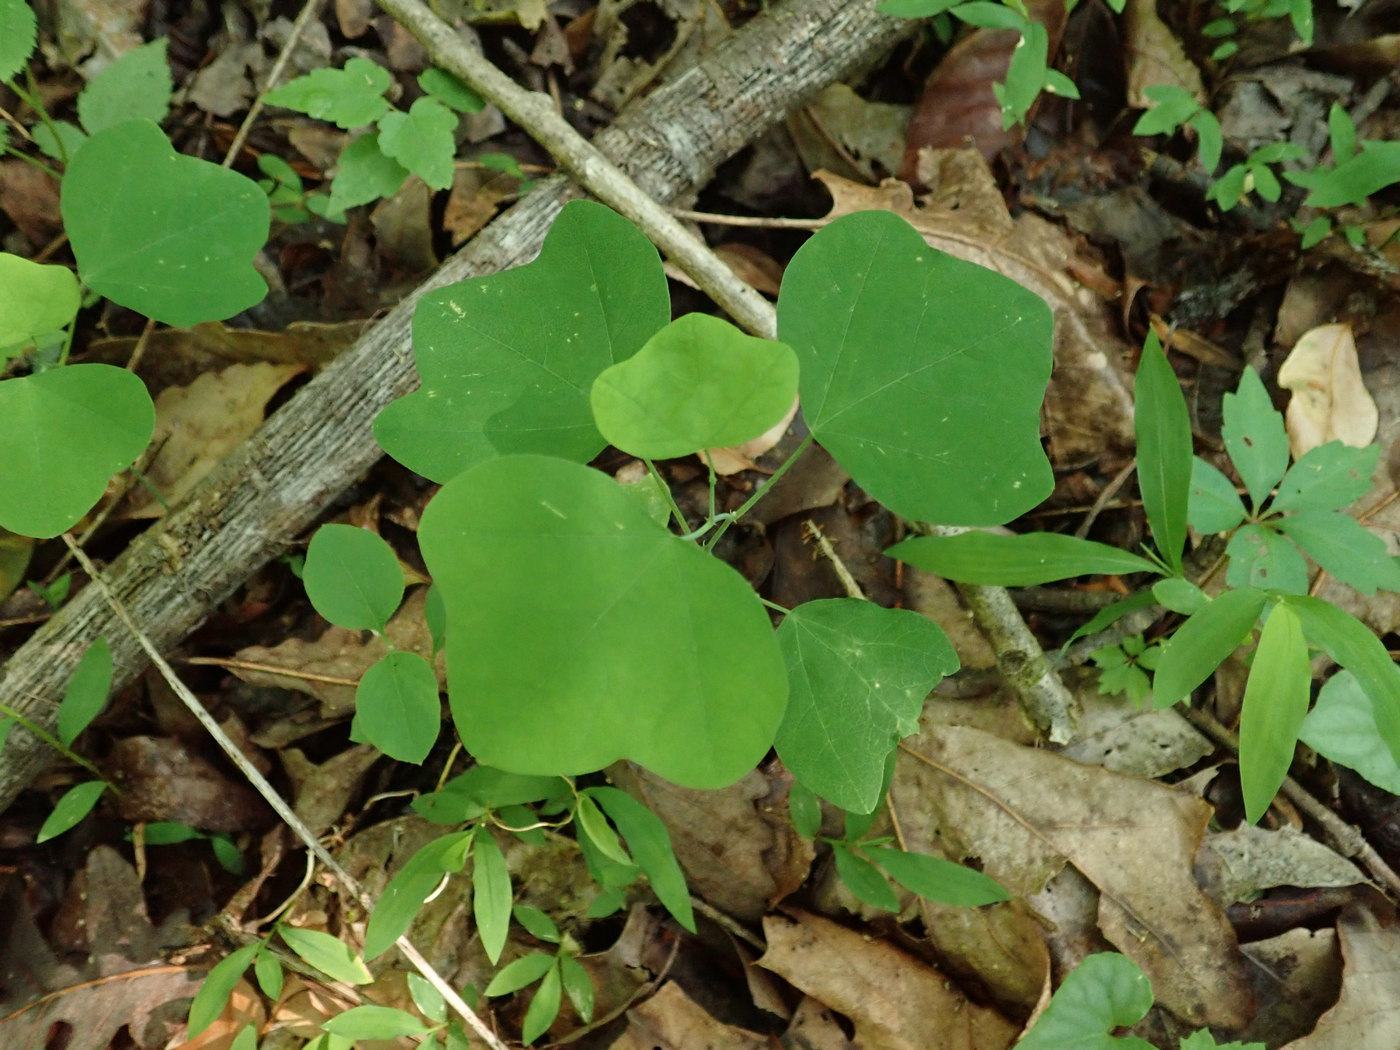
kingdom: Plantae
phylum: Tracheophyta
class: Magnoliopsida
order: Malpighiales
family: Passifloraceae
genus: Passiflora
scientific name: Passiflora lutea
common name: Yellow passionflower
